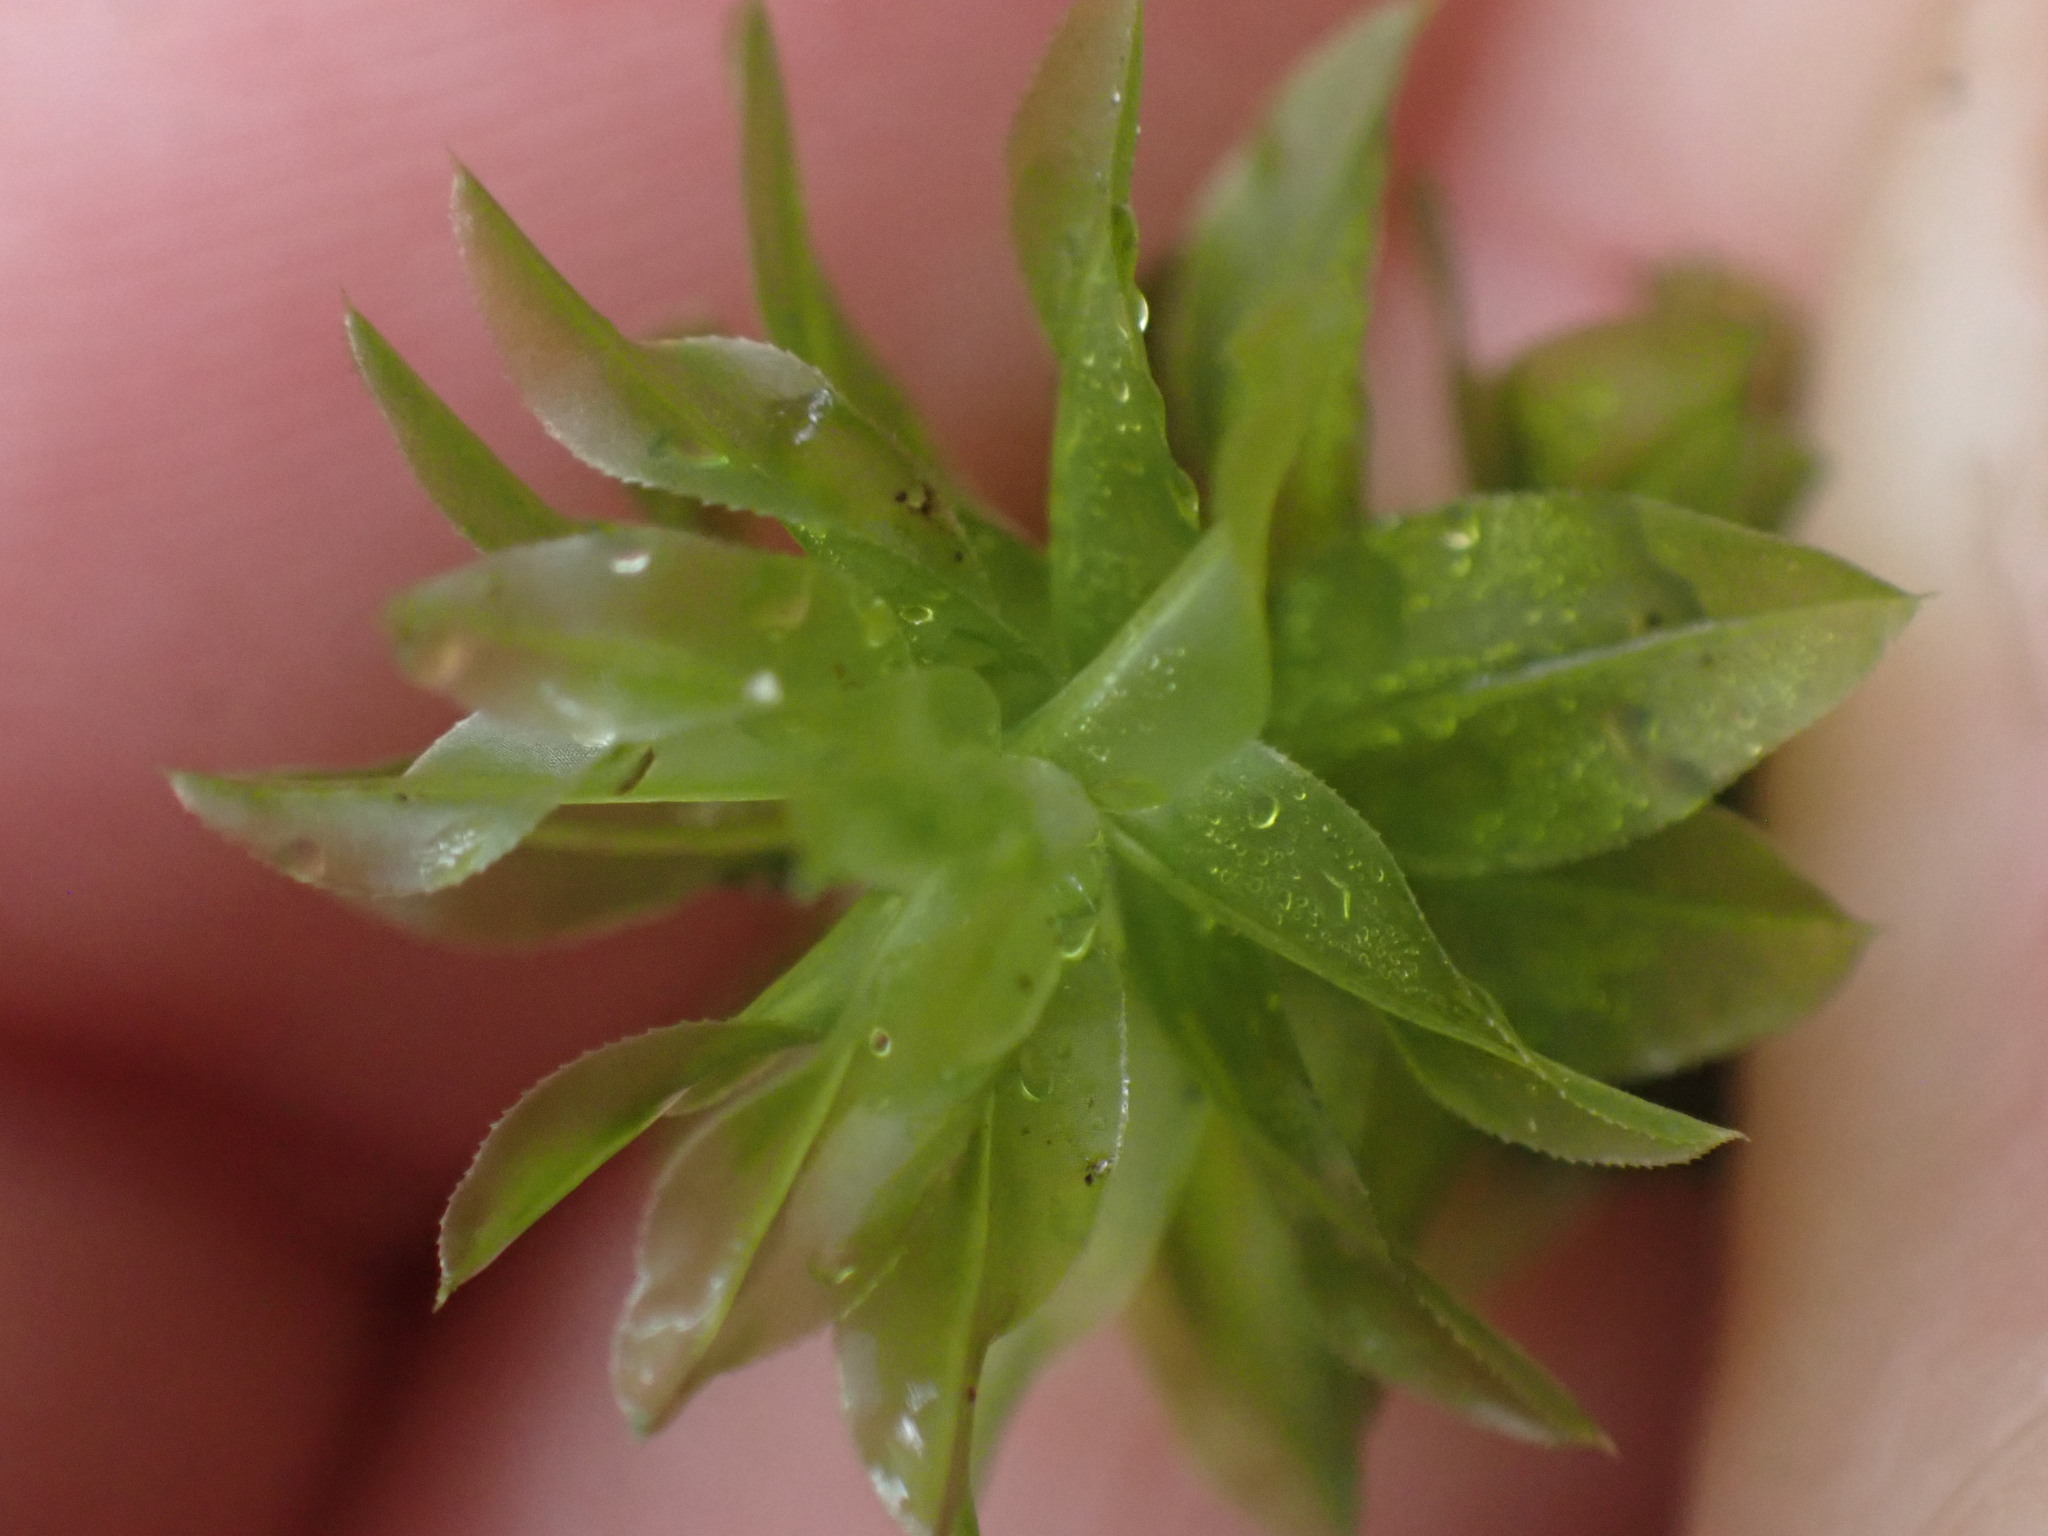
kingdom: Plantae
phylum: Bryophyta
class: Bryopsida
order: Bryales
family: Mniaceae
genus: Plagiomnium
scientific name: Plagiomnium insigne
